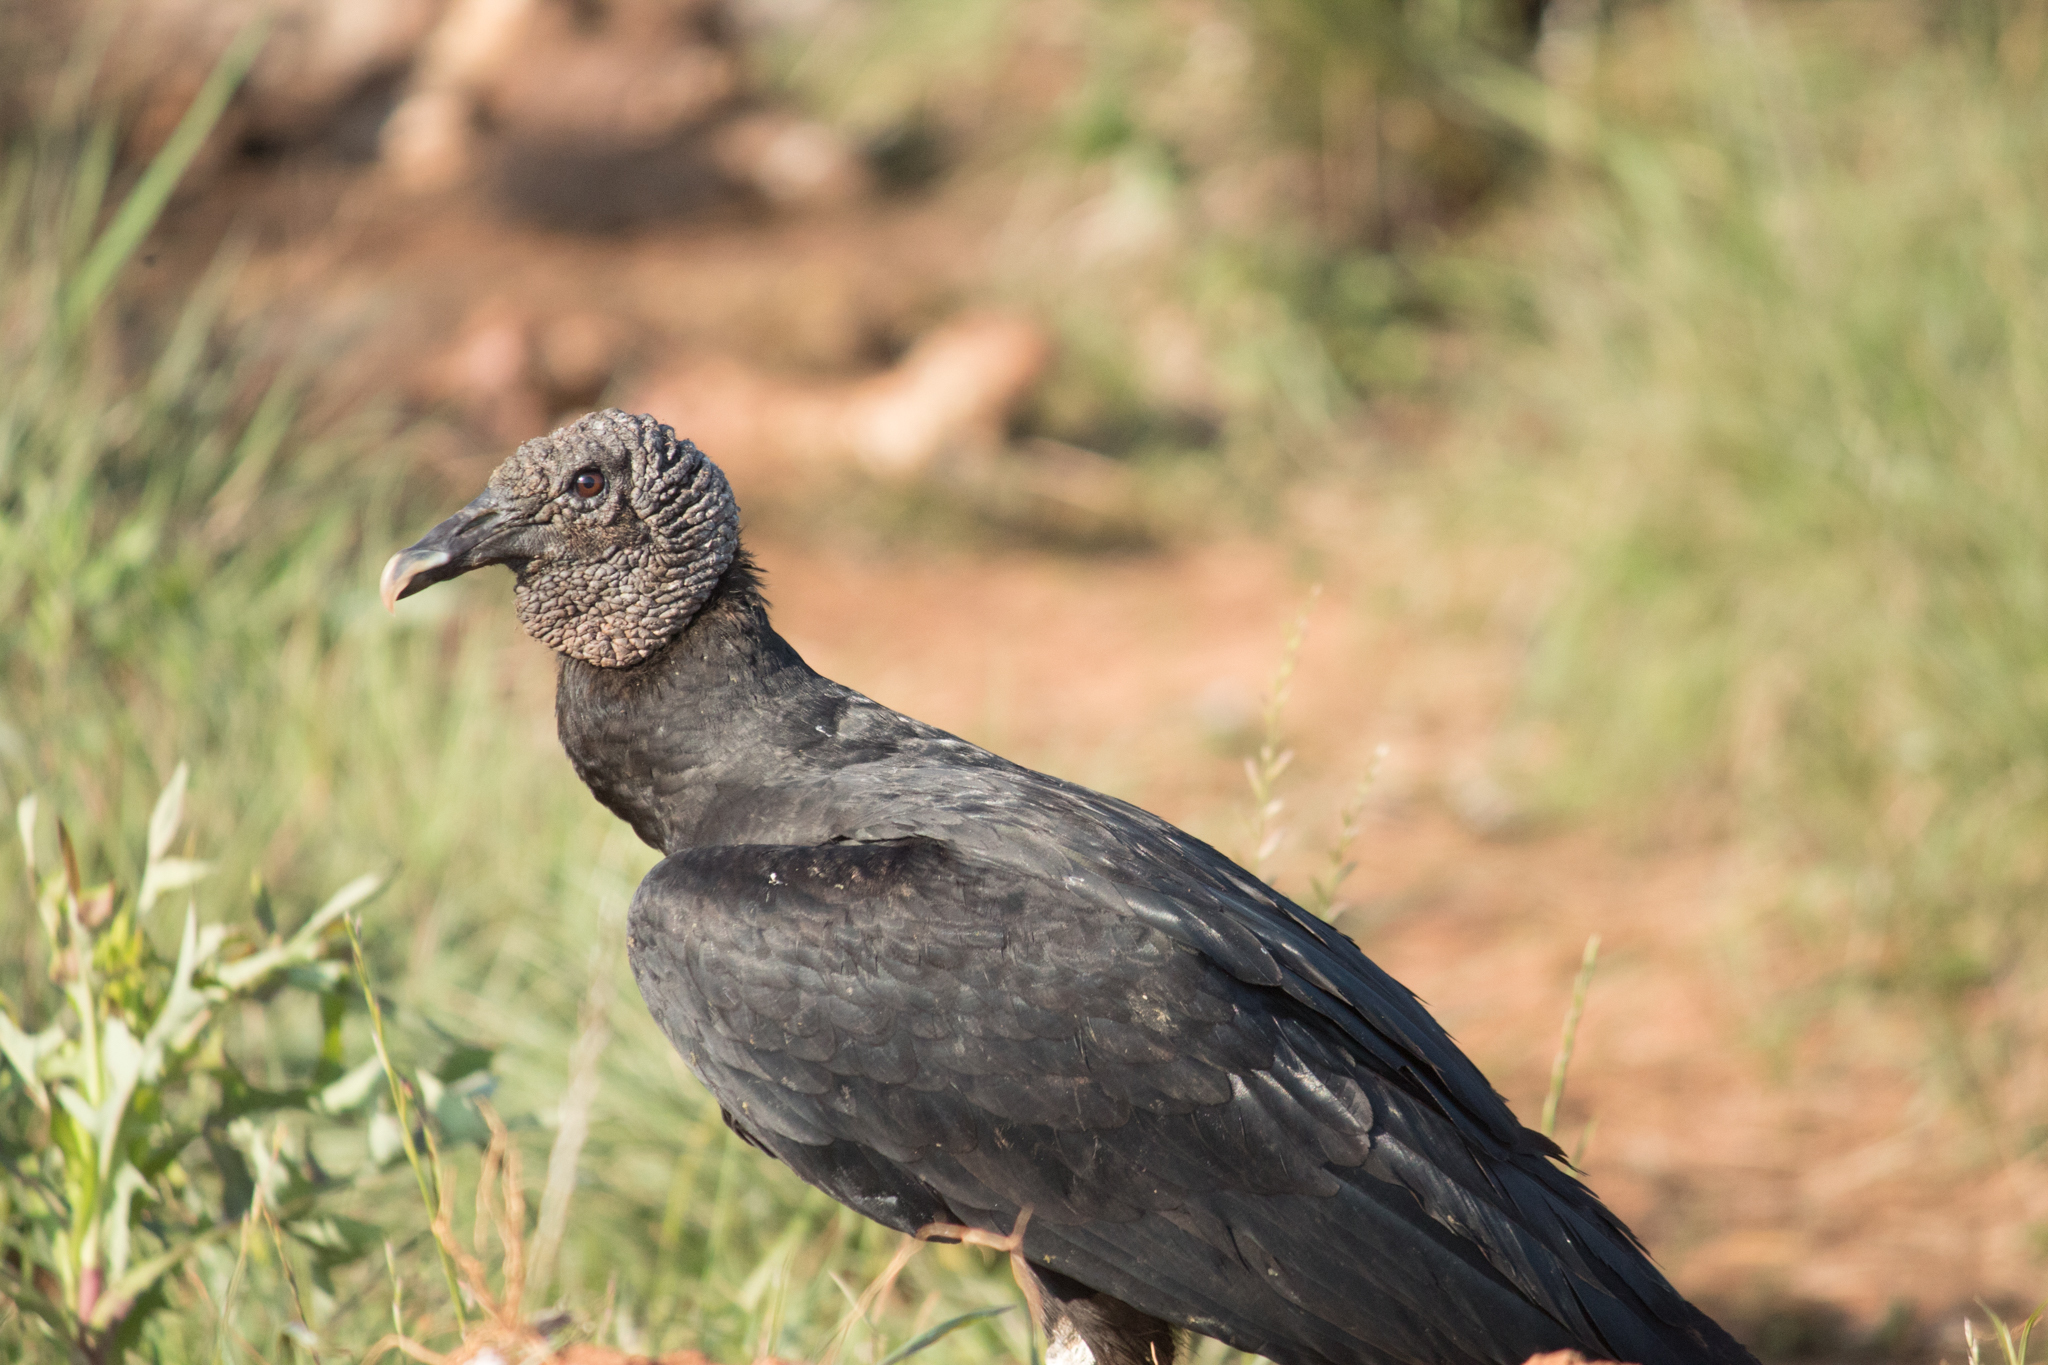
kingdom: Animalia
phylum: Chordata
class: Aves
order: Accipitriformes
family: Cathartidae
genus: Coragyps
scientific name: Coragyps atratus
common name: Black vulture
